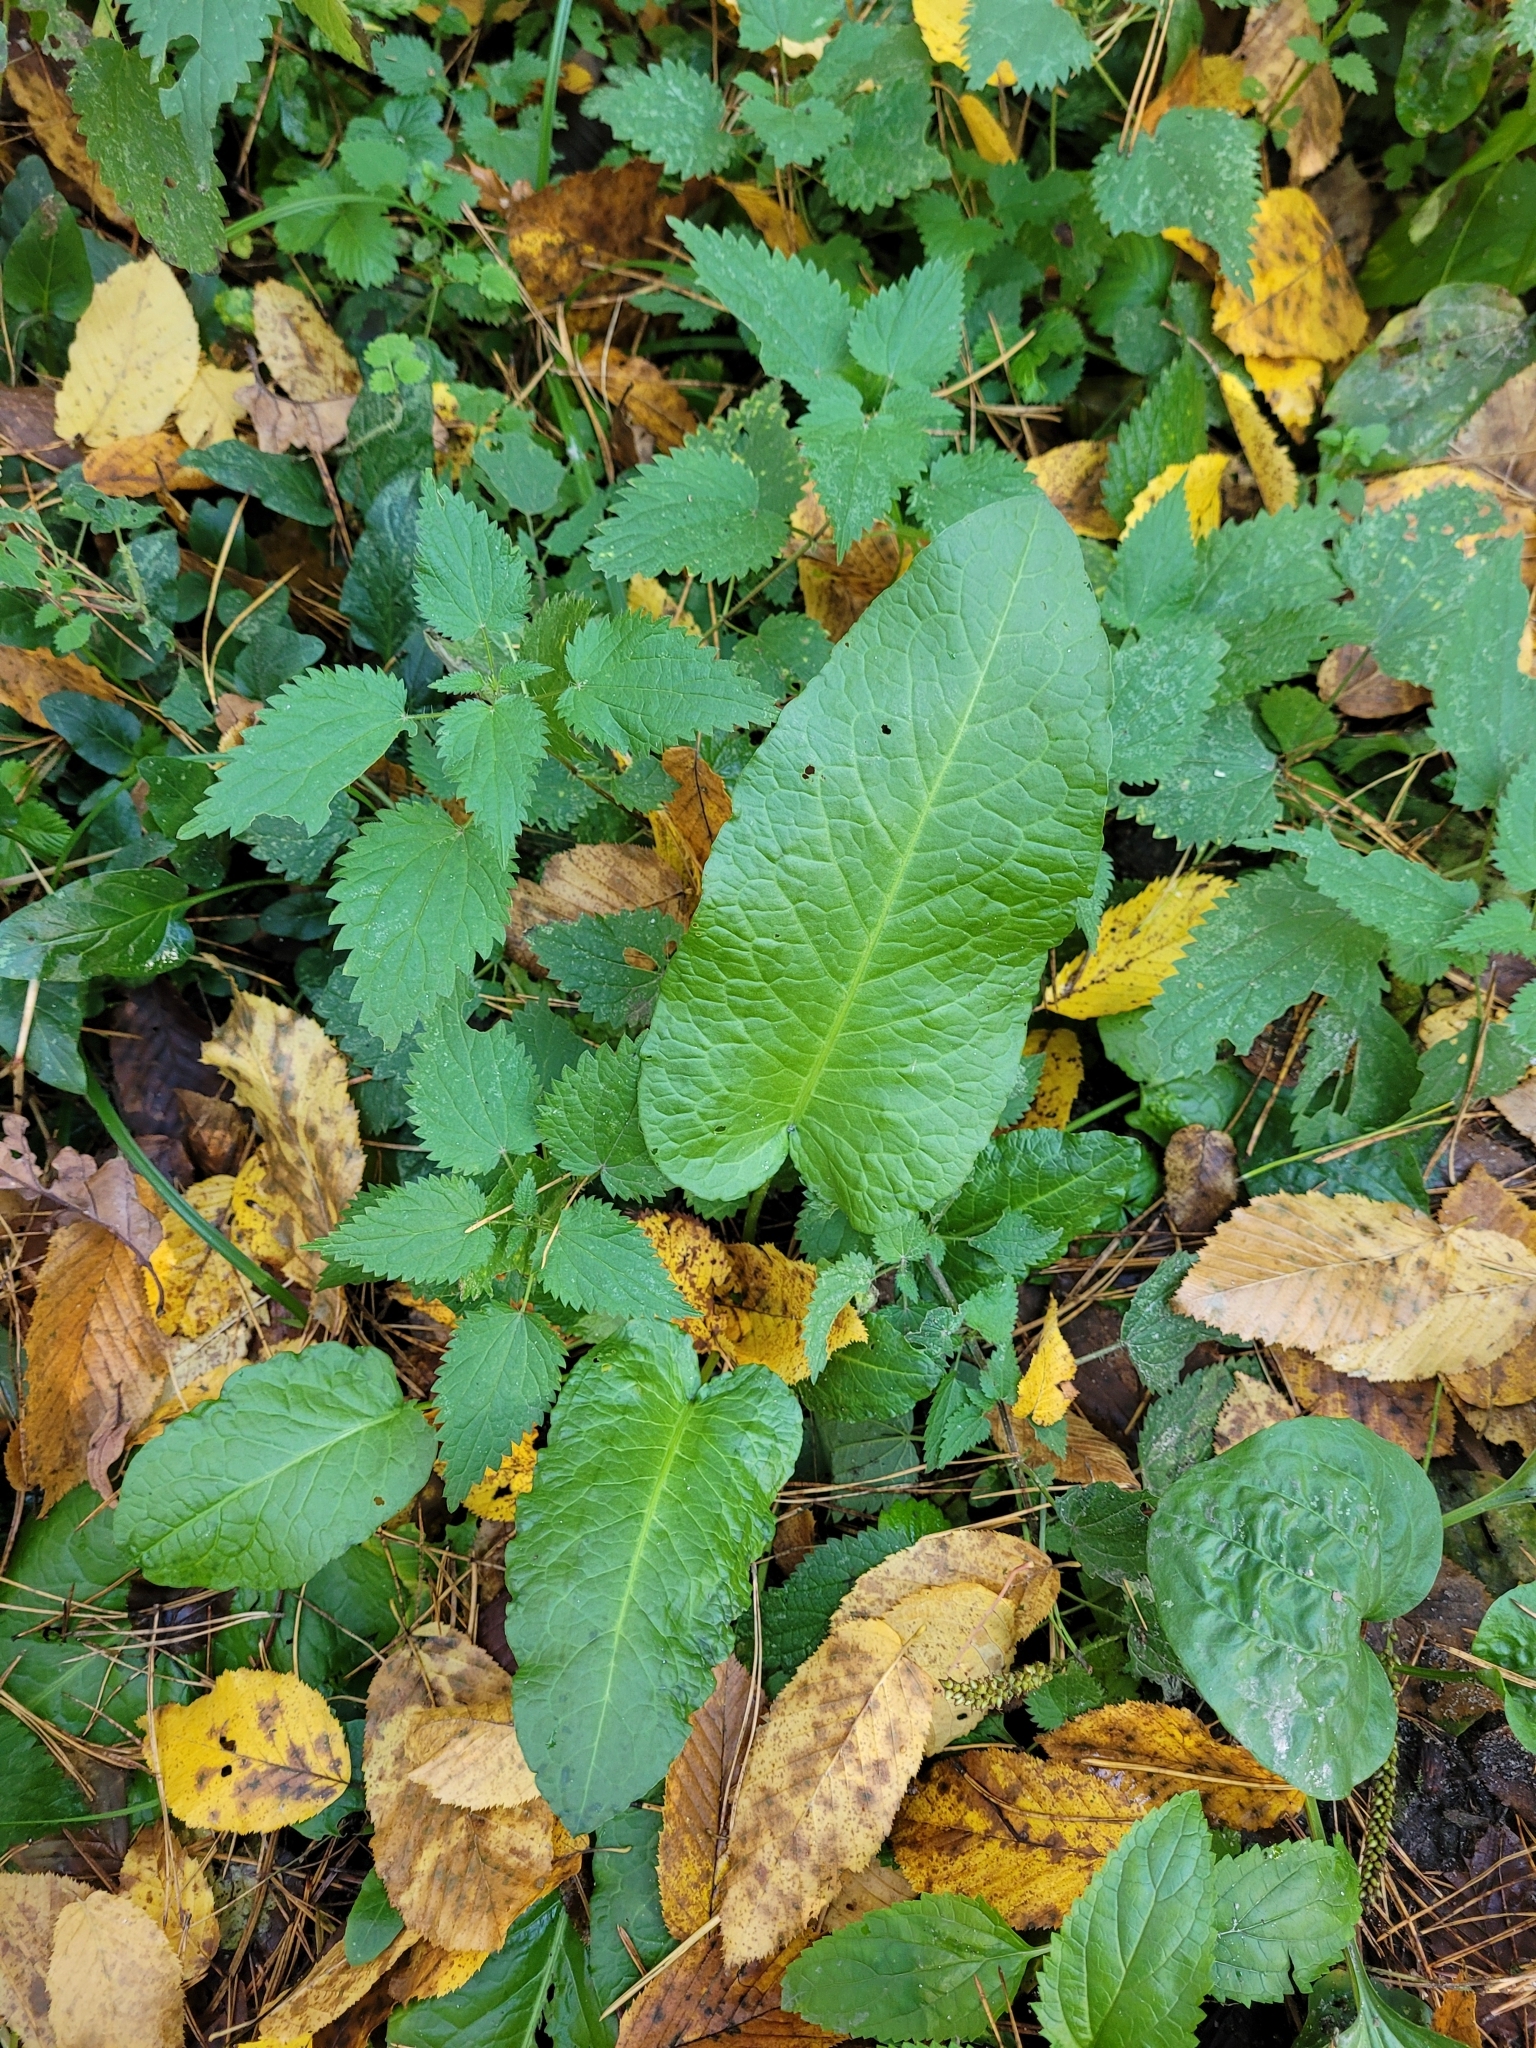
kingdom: Plantae
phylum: Tracheophyta
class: Magnoliopsida
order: Caryophyllales
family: Polygonaceae
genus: Rumex
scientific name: Rumex obtusifolius
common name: Bitter dock
